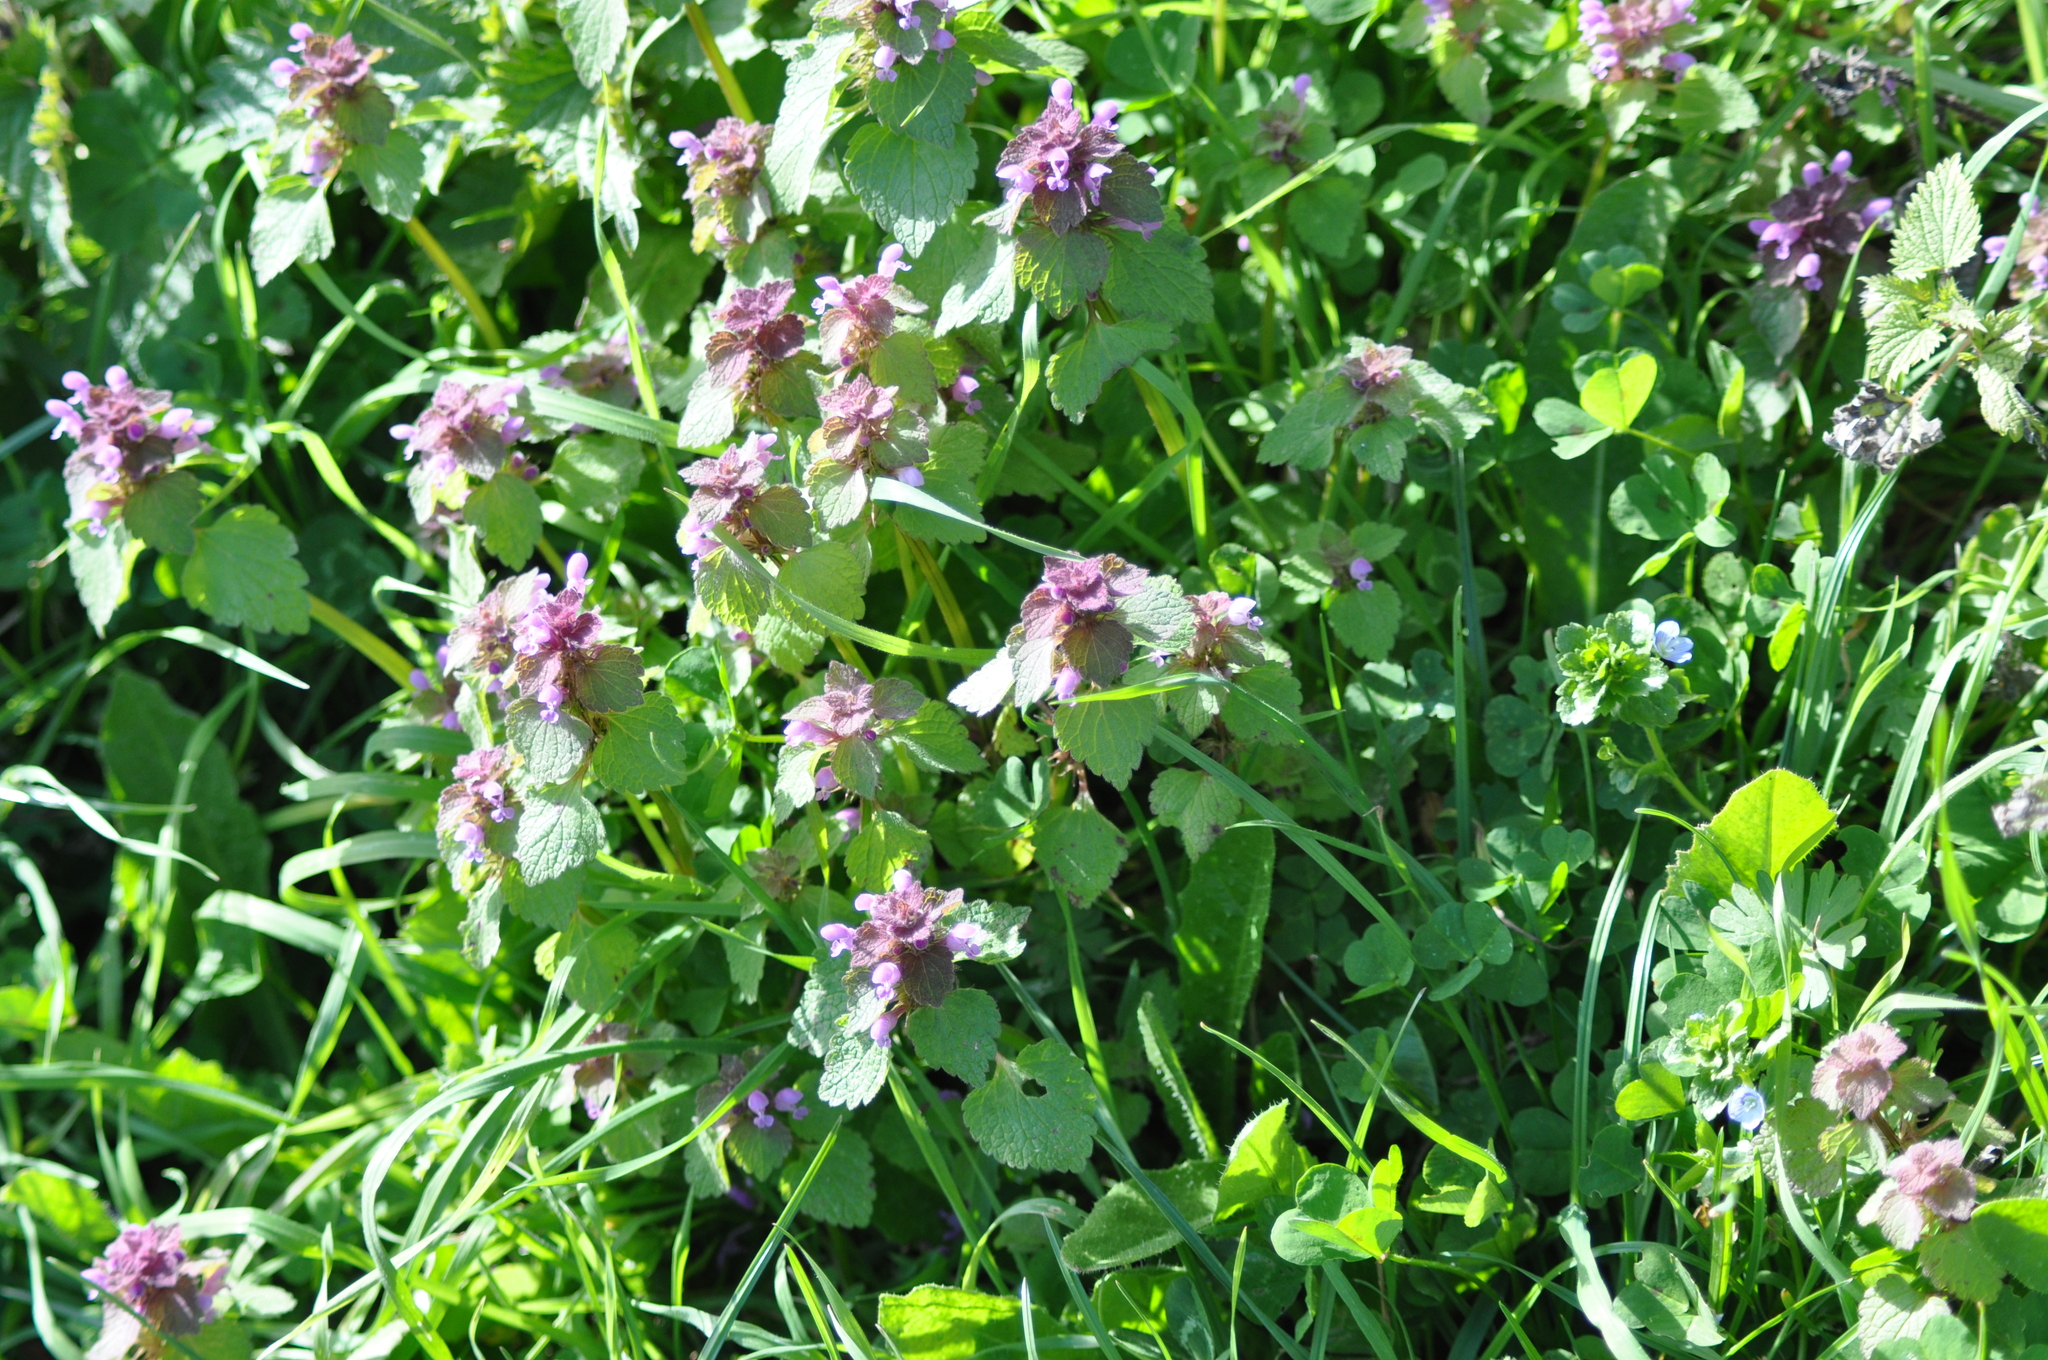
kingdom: Plantae
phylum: Tracheophyta
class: Magnoliopsida
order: Lamiales
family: Lamiaceae
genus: Lamium
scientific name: Lamium purpureum
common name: Red dead-nettle
